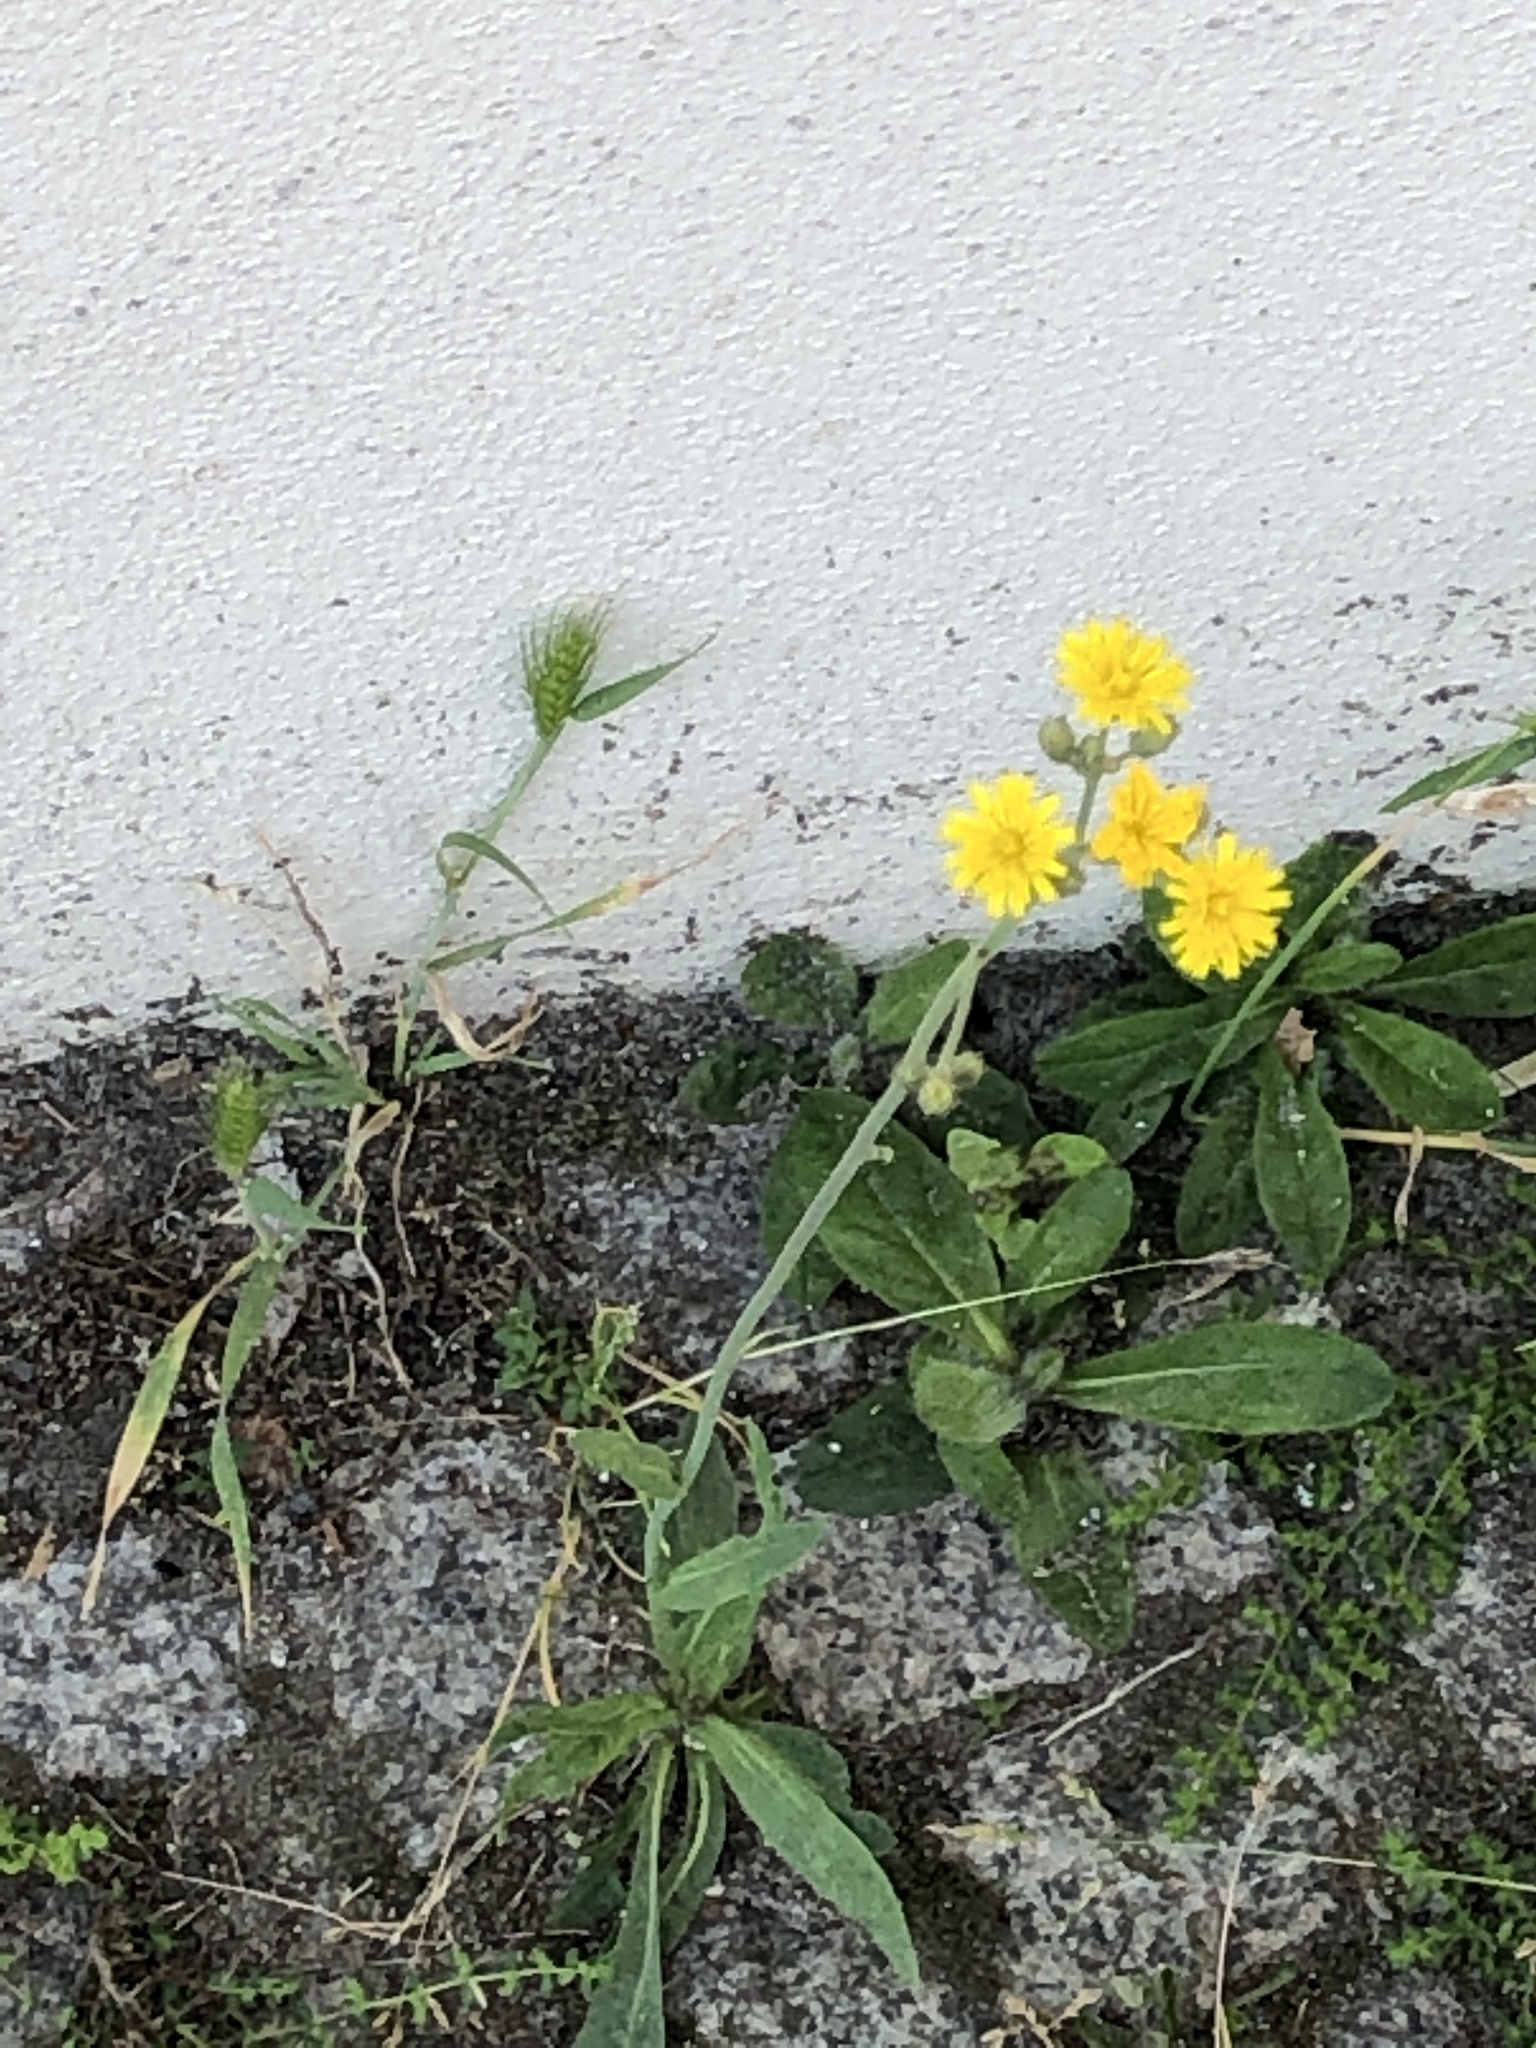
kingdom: Plantae
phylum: Tracheophyta
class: Magnoliopsida
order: Asterales
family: Asteraceae
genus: Pilosella
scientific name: Pilosella officinarum
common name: Mouse-ear hawkweed
